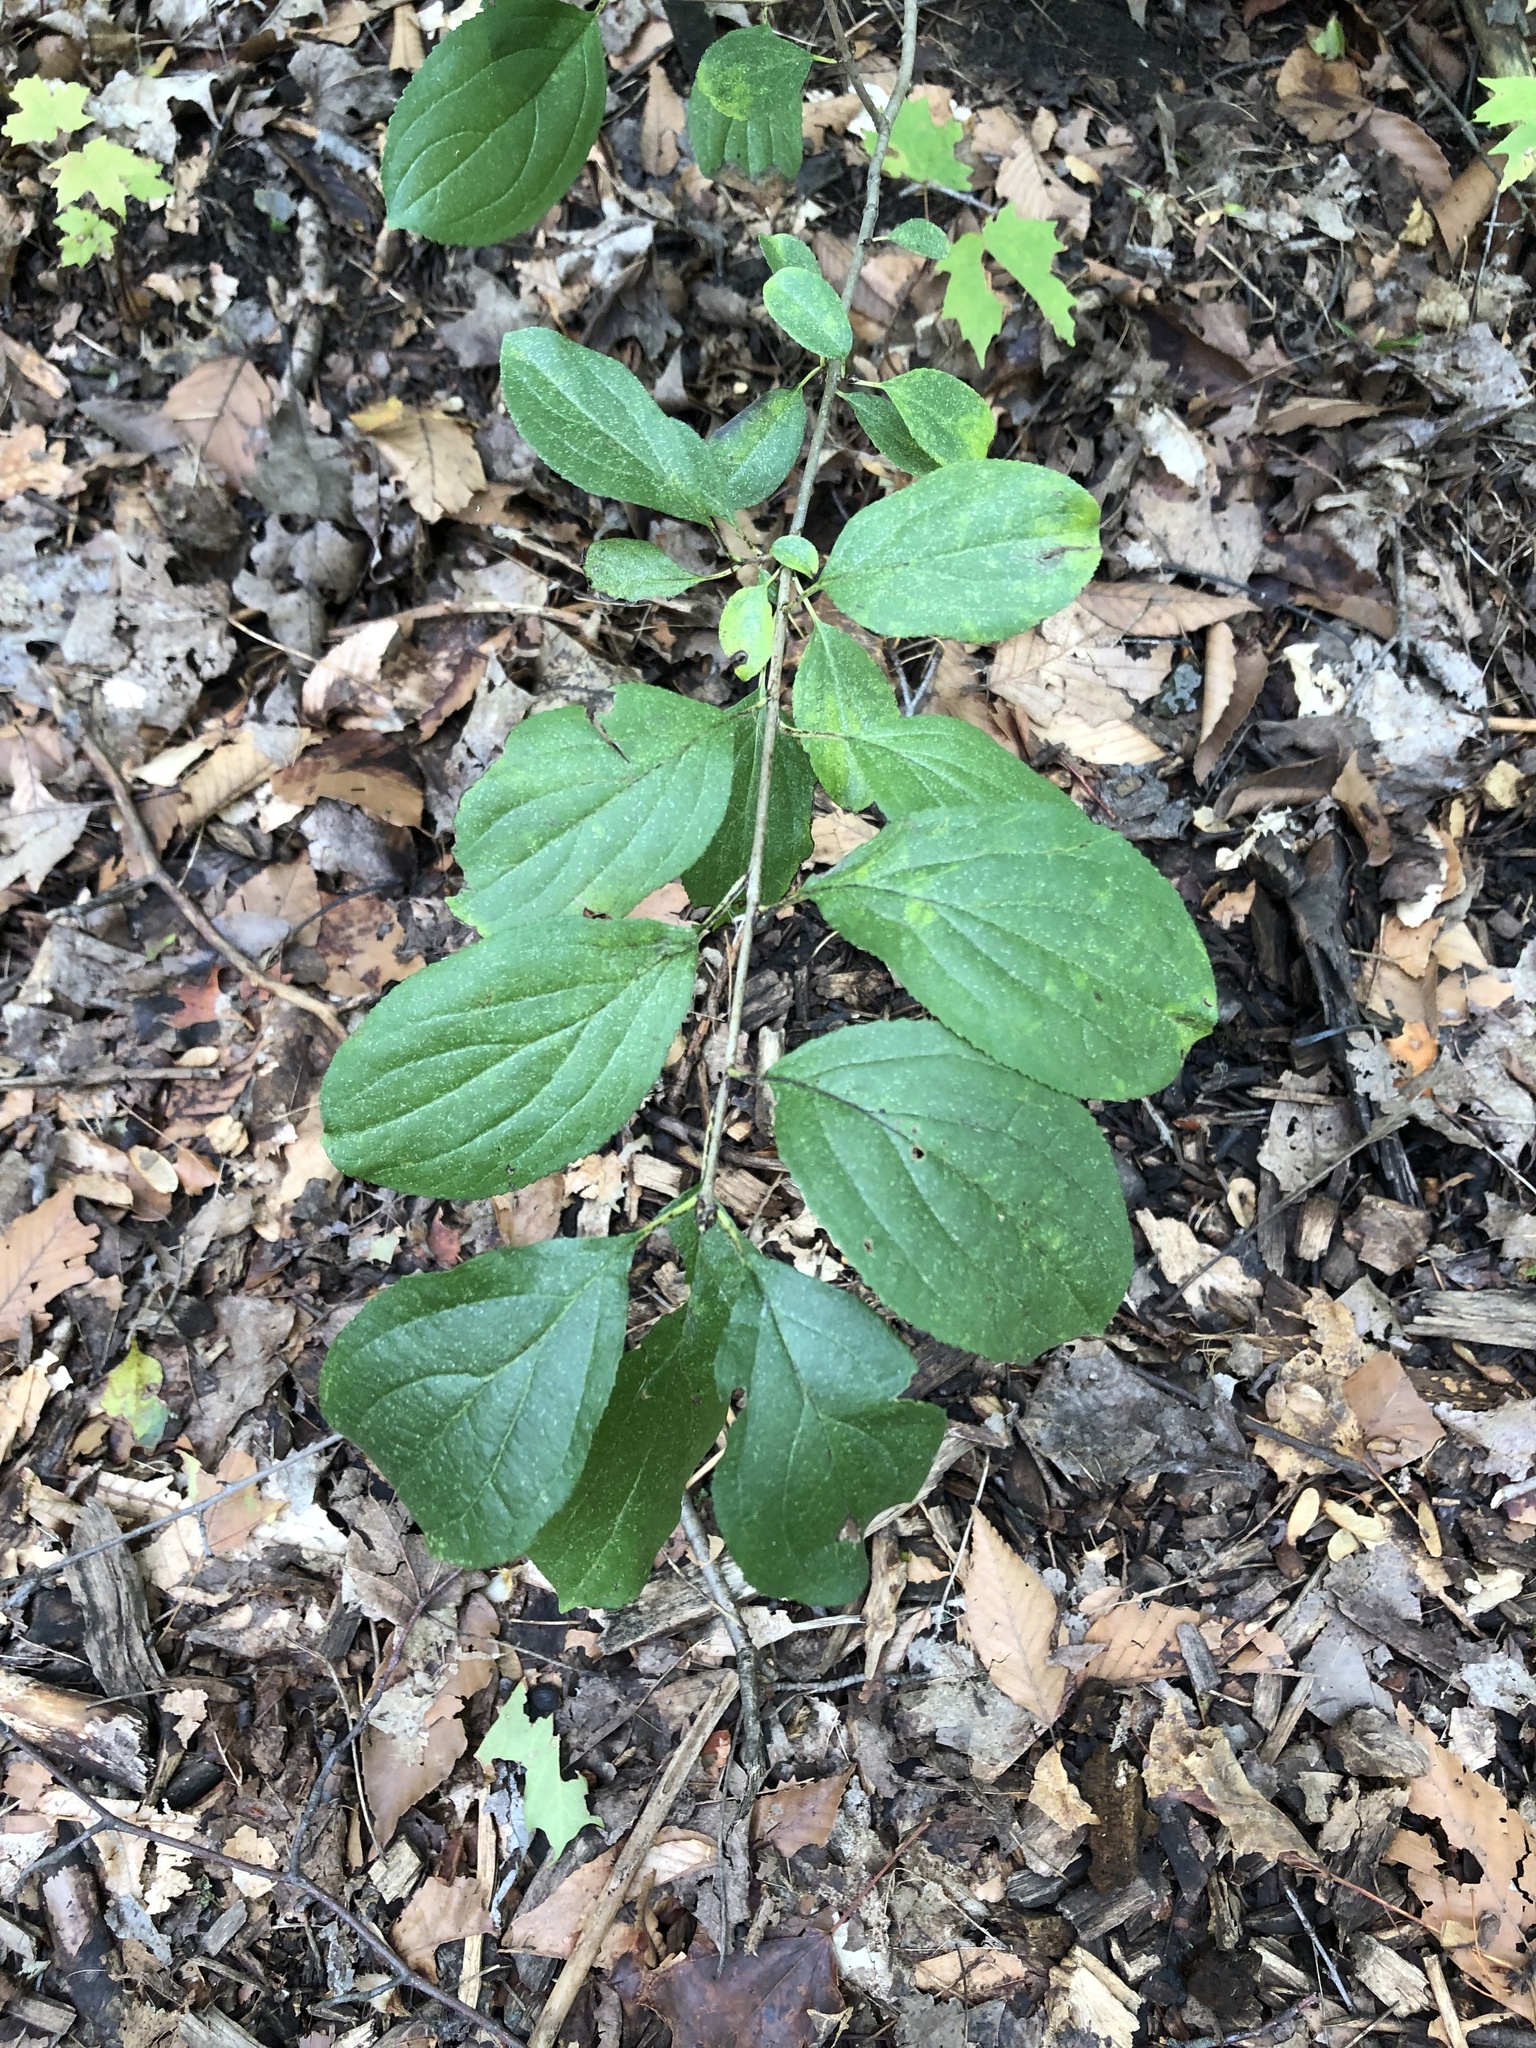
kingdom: Plantae
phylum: Tracheophyta
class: Magnoliopsida
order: Rosales
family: Rhamnaceae
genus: Rhamnus
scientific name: Rhamnus cathartica
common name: Common buckthorn
